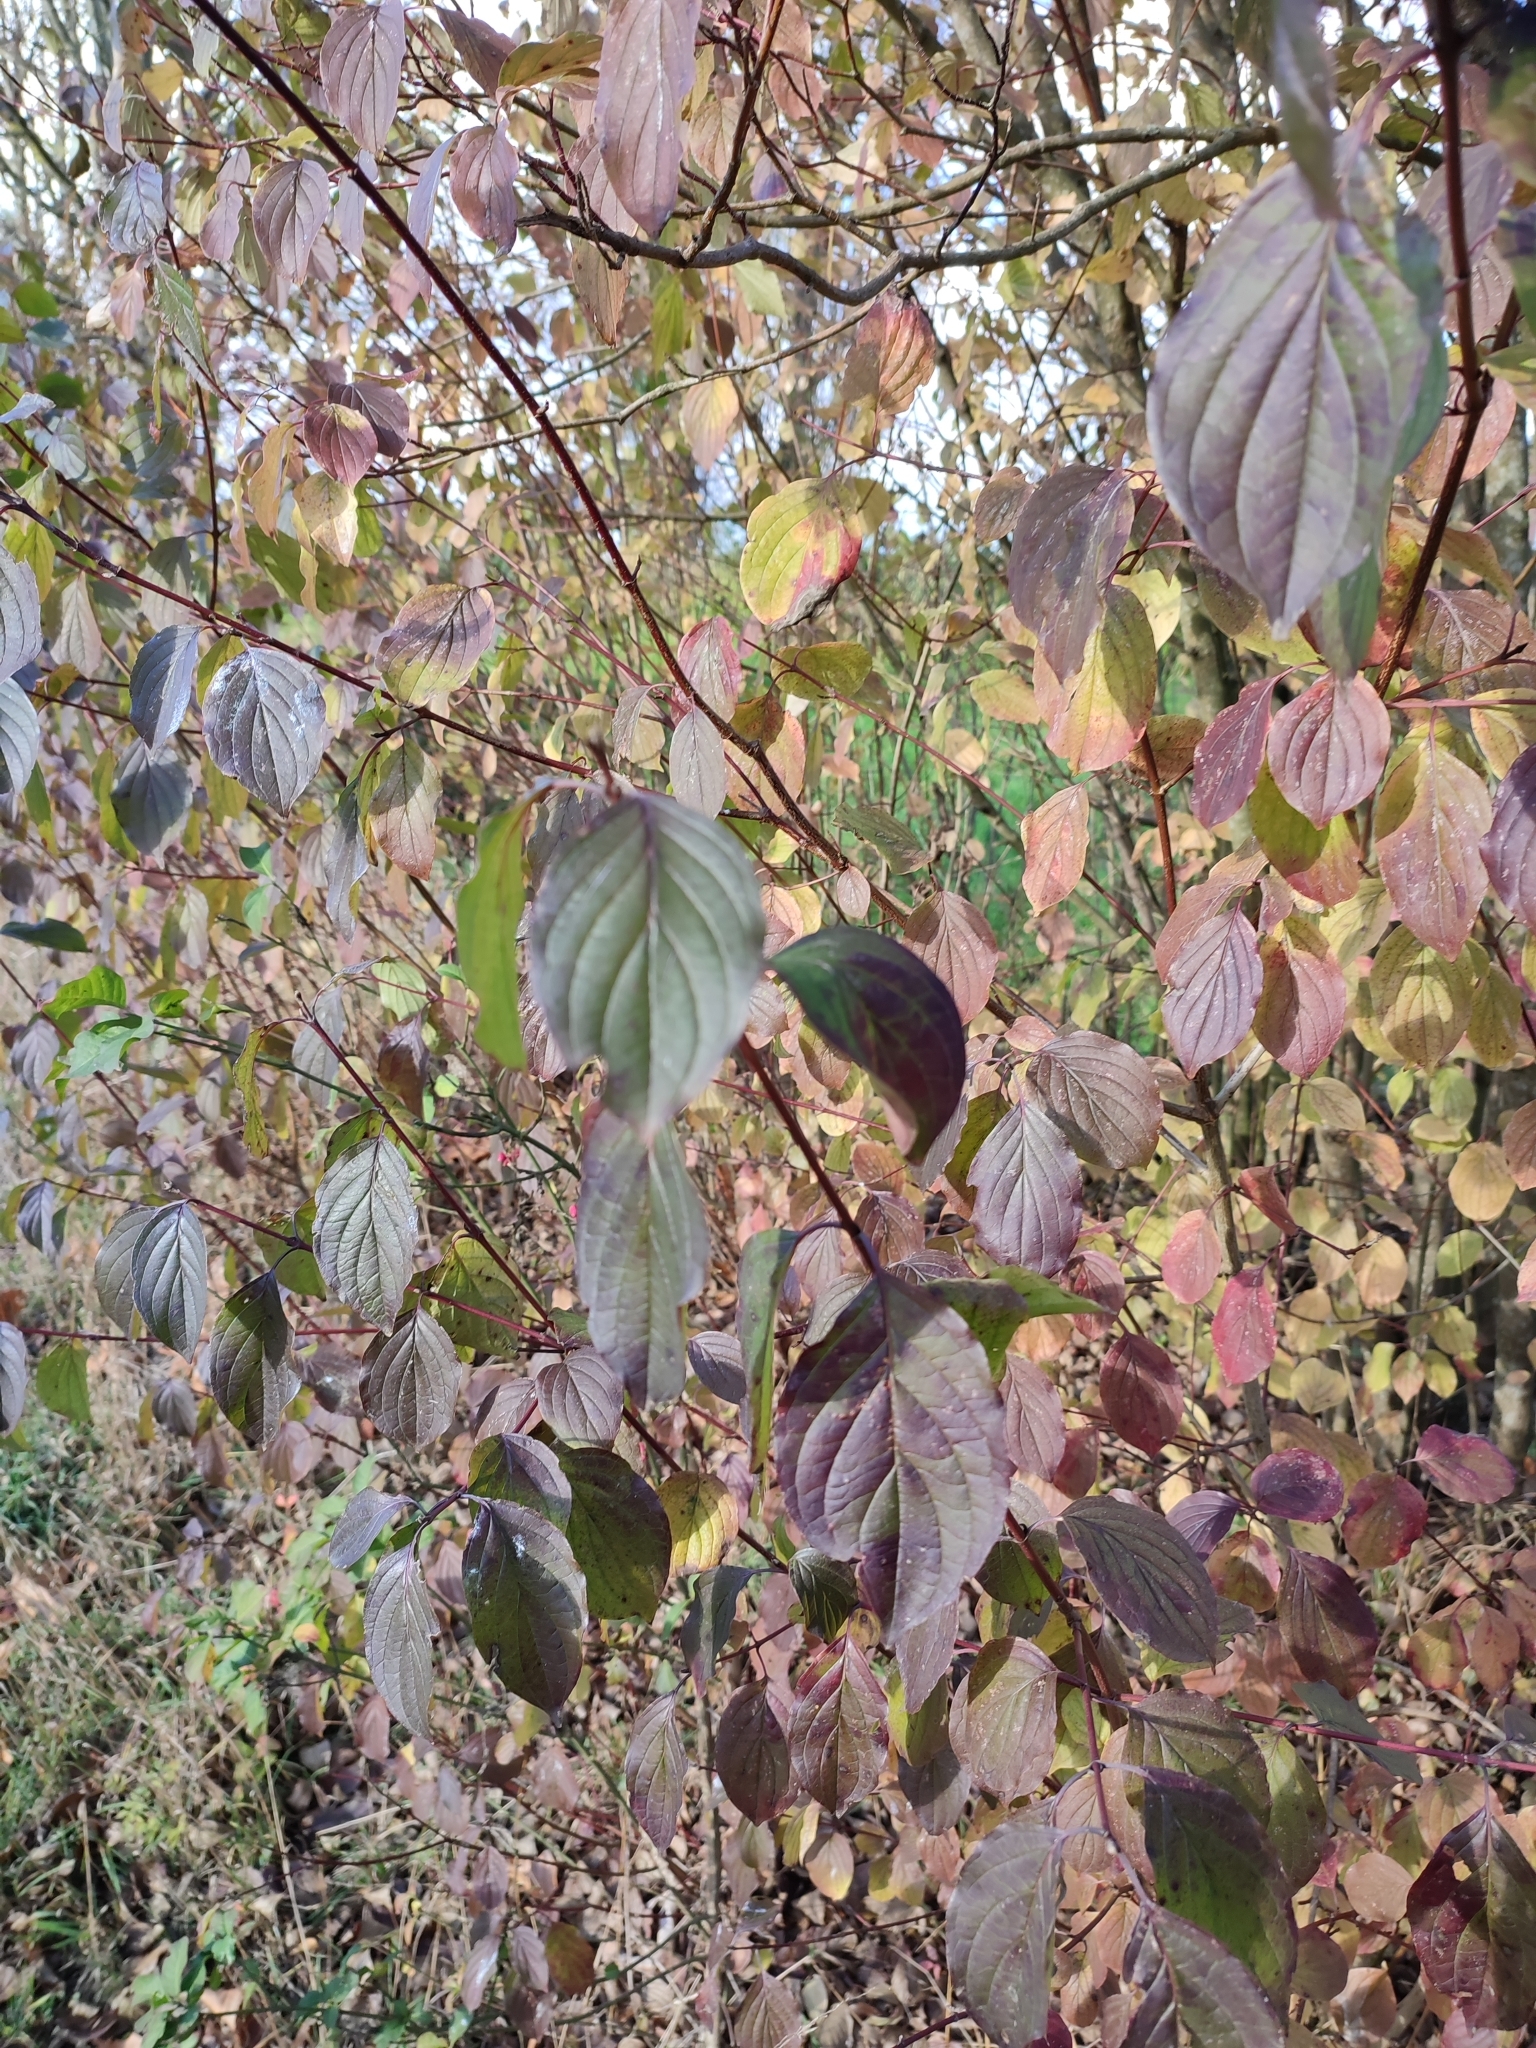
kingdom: Plantae
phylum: Tracheophyta
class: Magnoliopsida
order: Cornales
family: Cornaceae
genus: Cornus
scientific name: Cornus sanguinea
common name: Dogwood
